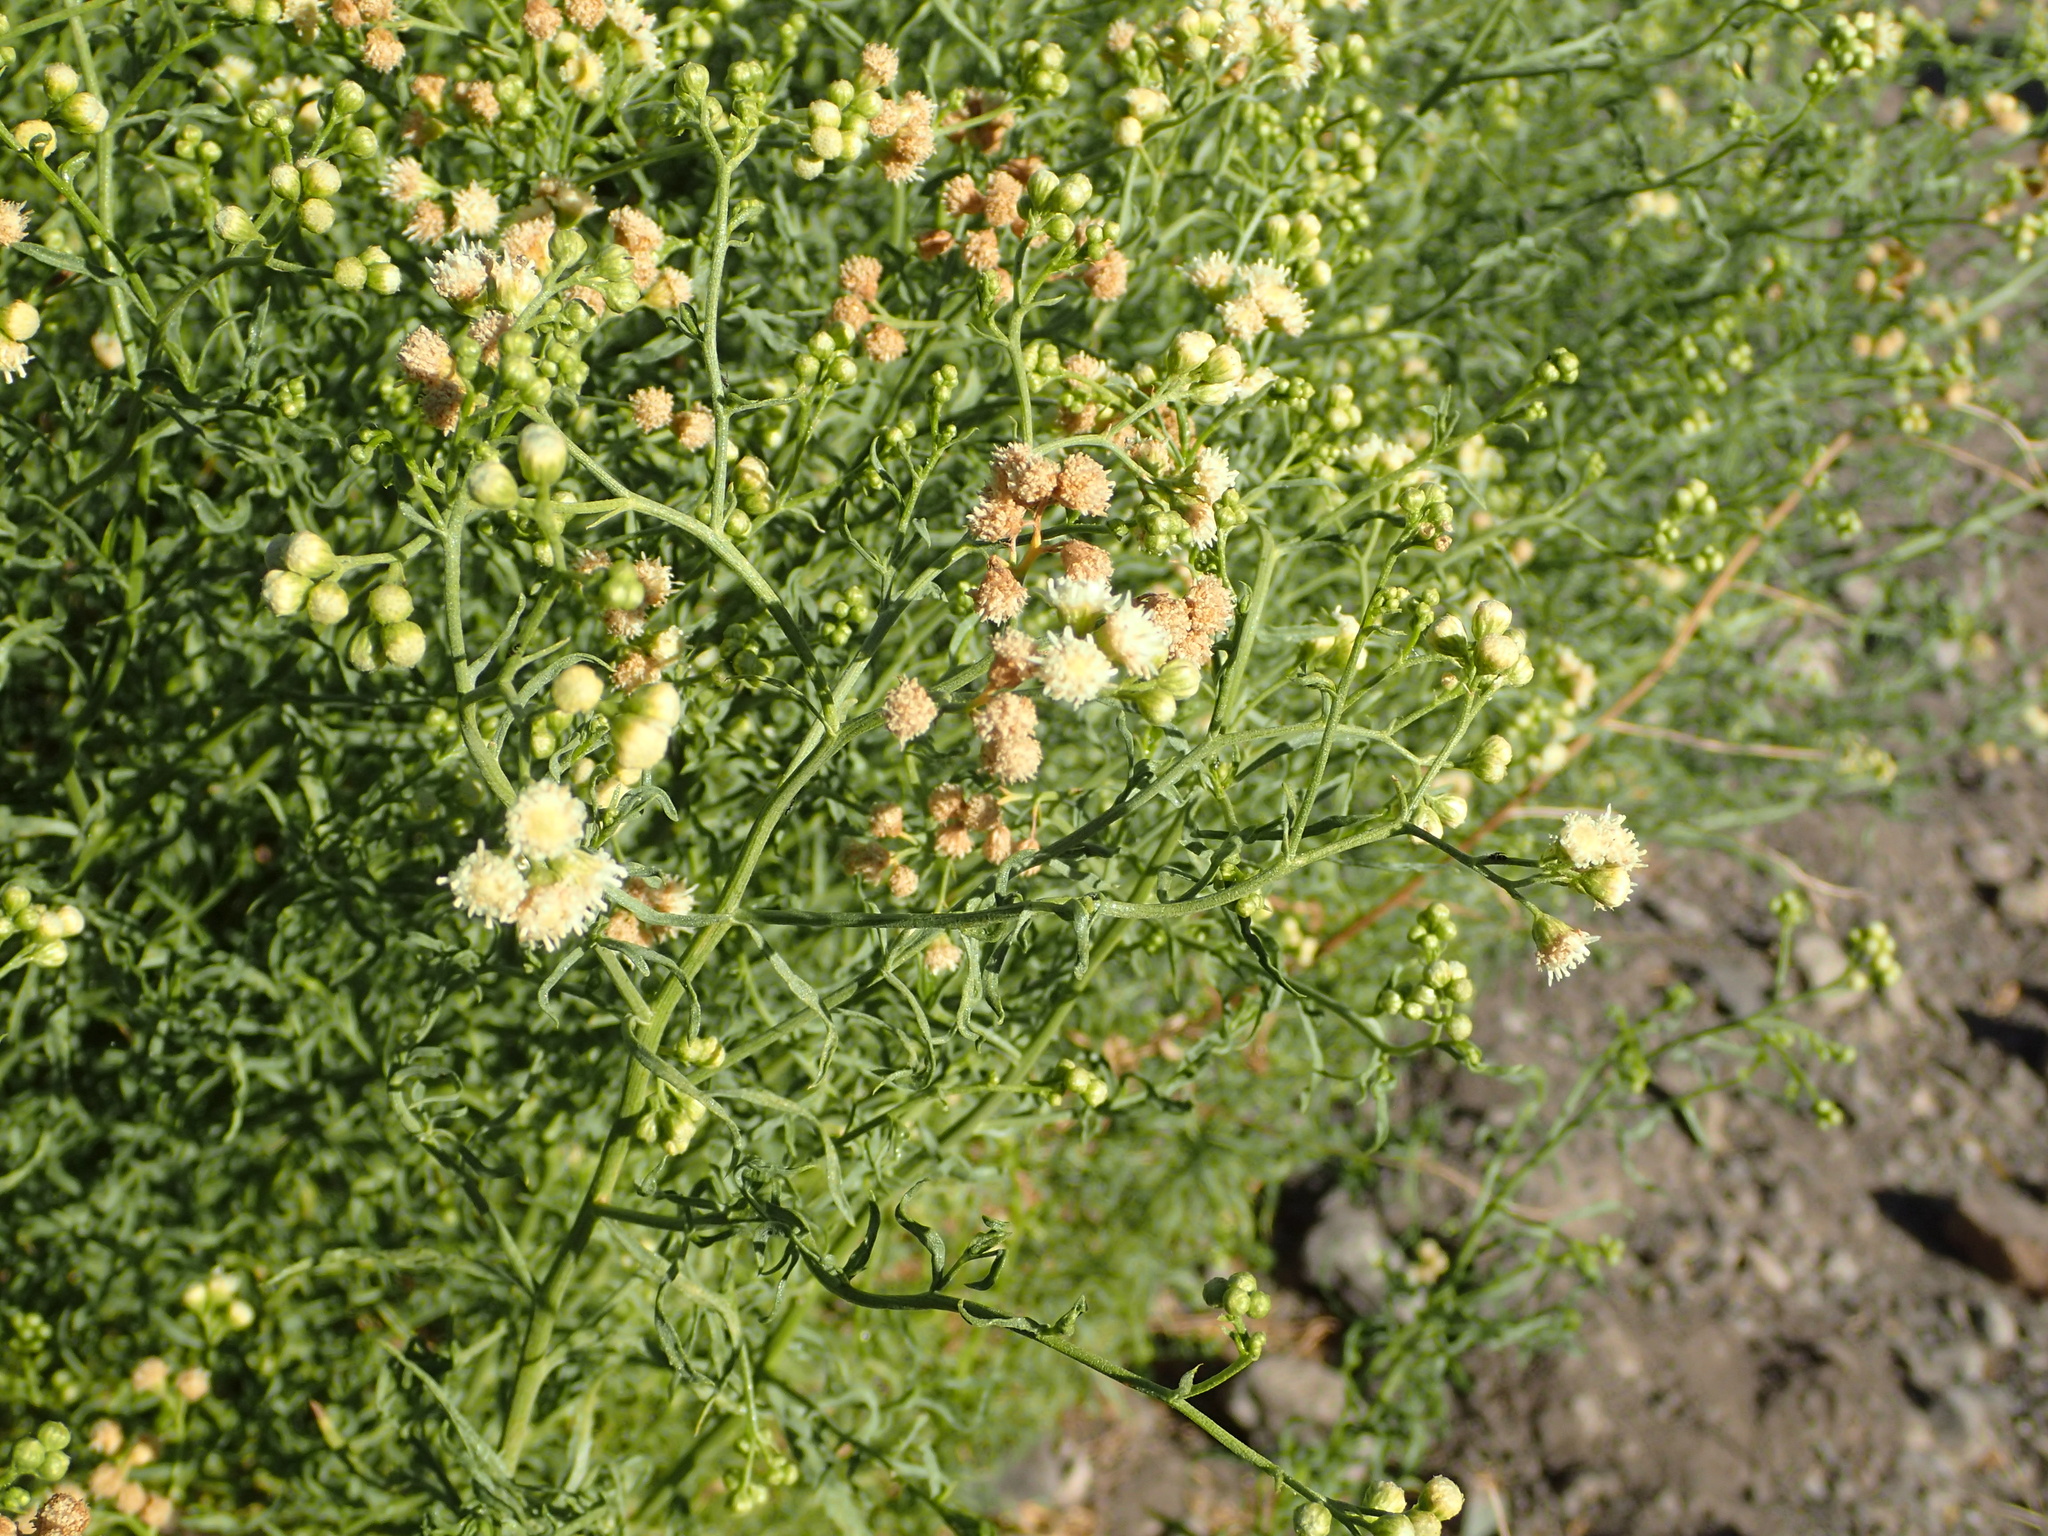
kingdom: Plantae
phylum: Tracheophyta
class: Magnoliopsida
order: Asterales
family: Asteraceae
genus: Baccharis
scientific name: Baccharis paniculata
